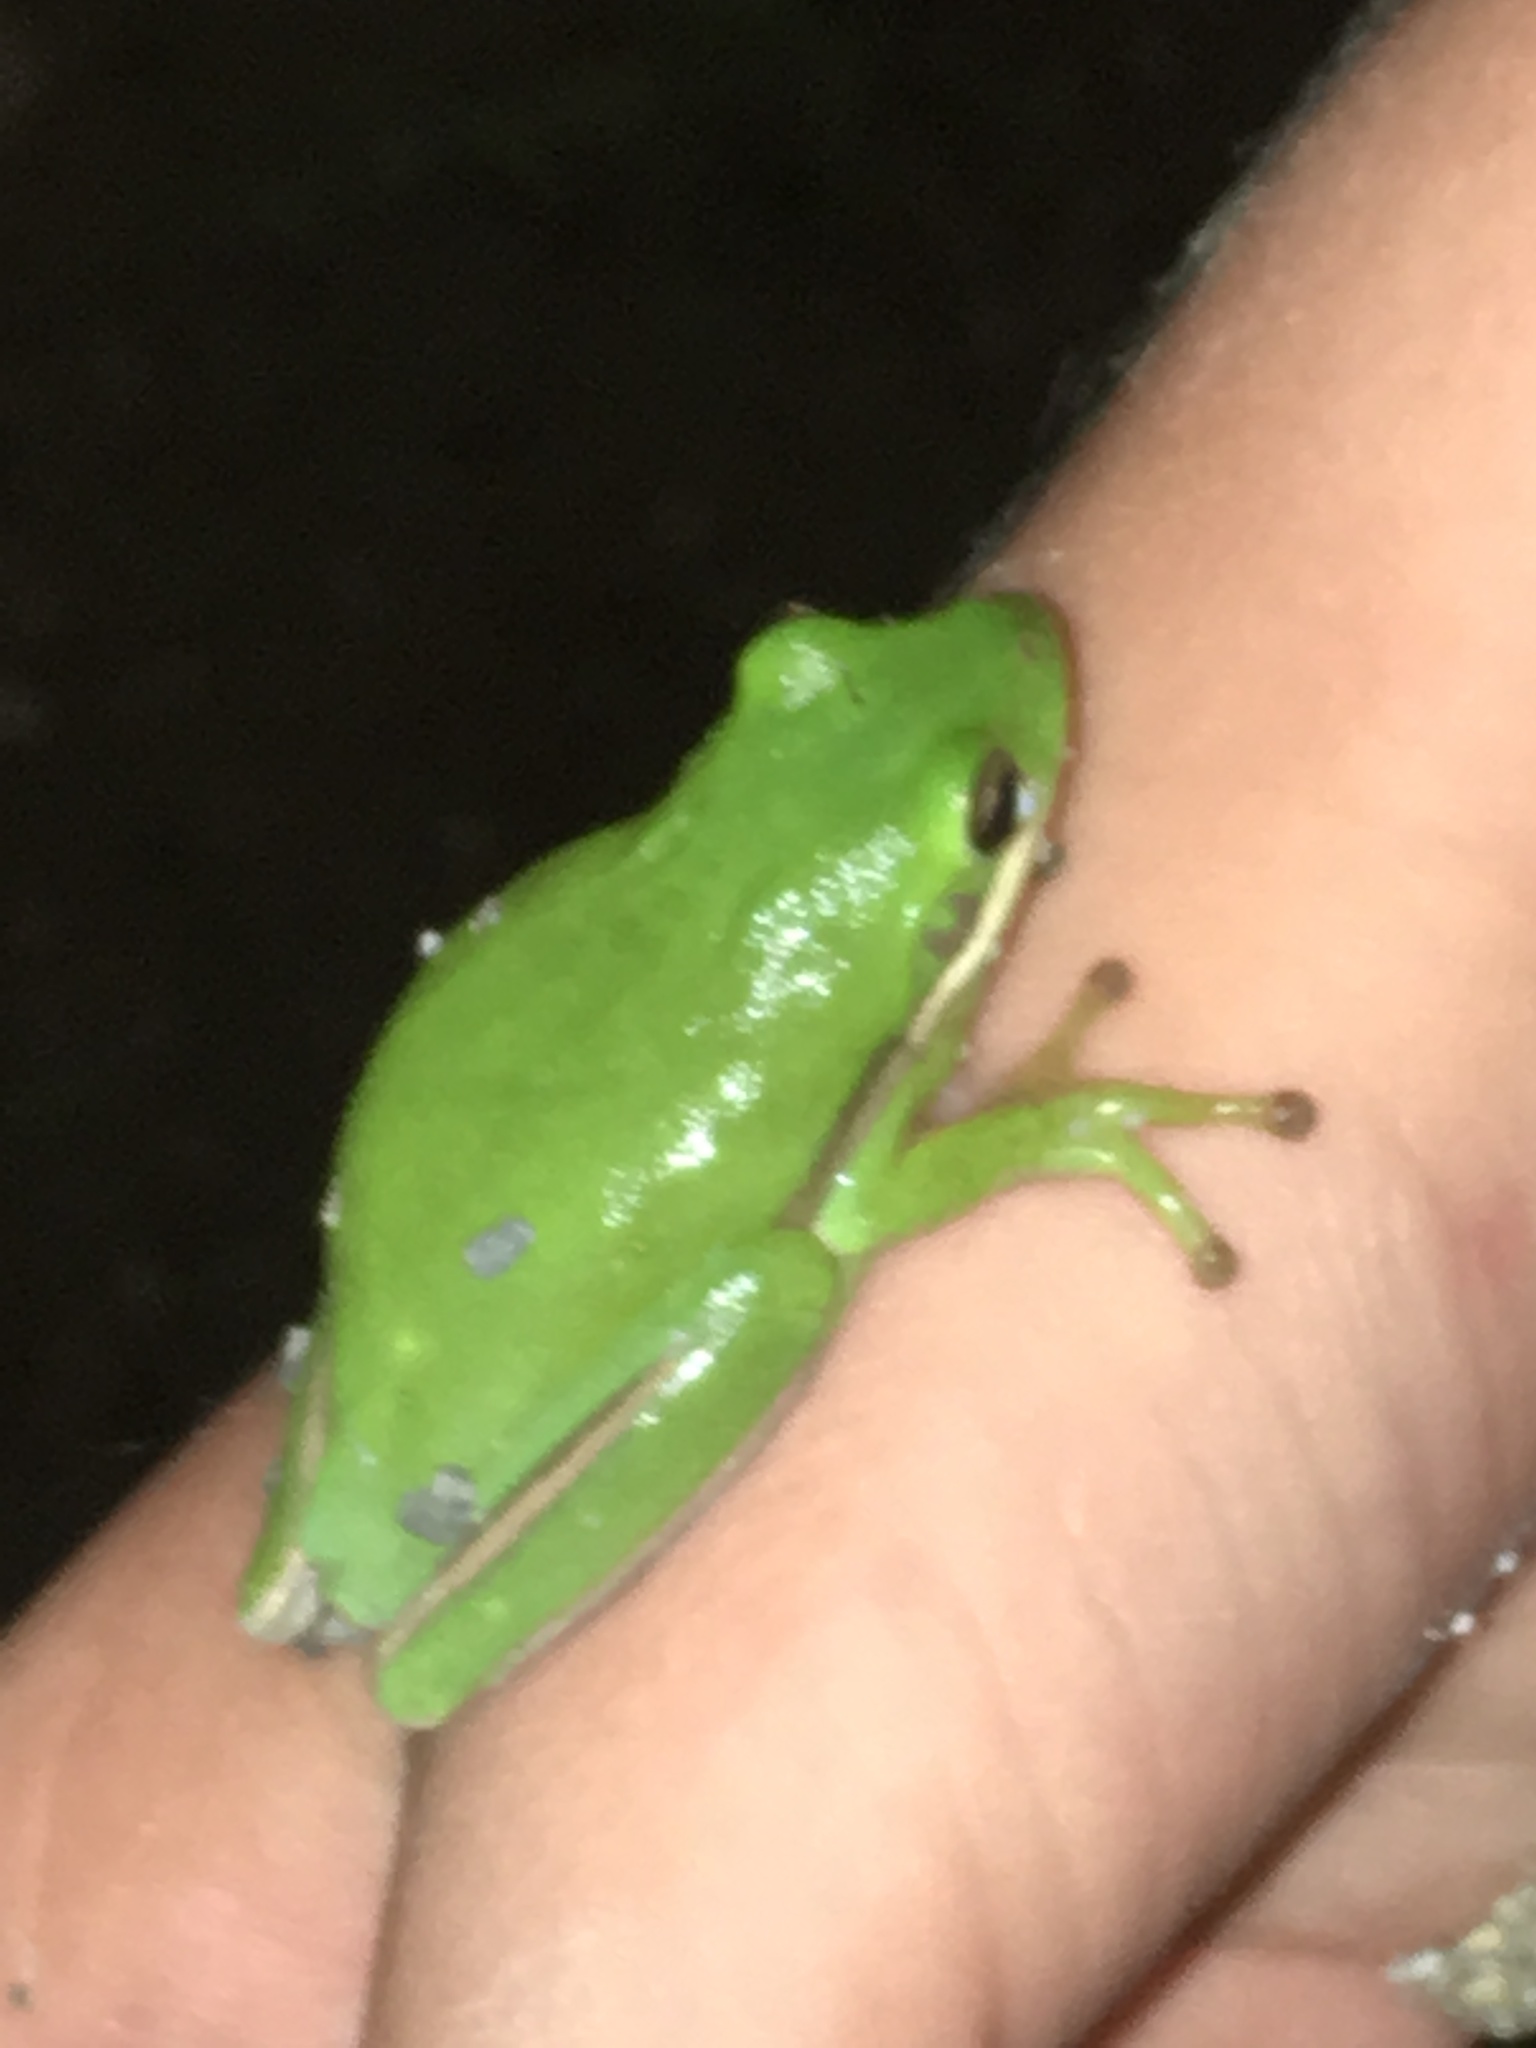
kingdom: Animalia
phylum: Chordata
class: Amphibia
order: Anura
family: Hylidae
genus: Dryophytes
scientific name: Dryophytes cinereus
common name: Green treefrog
